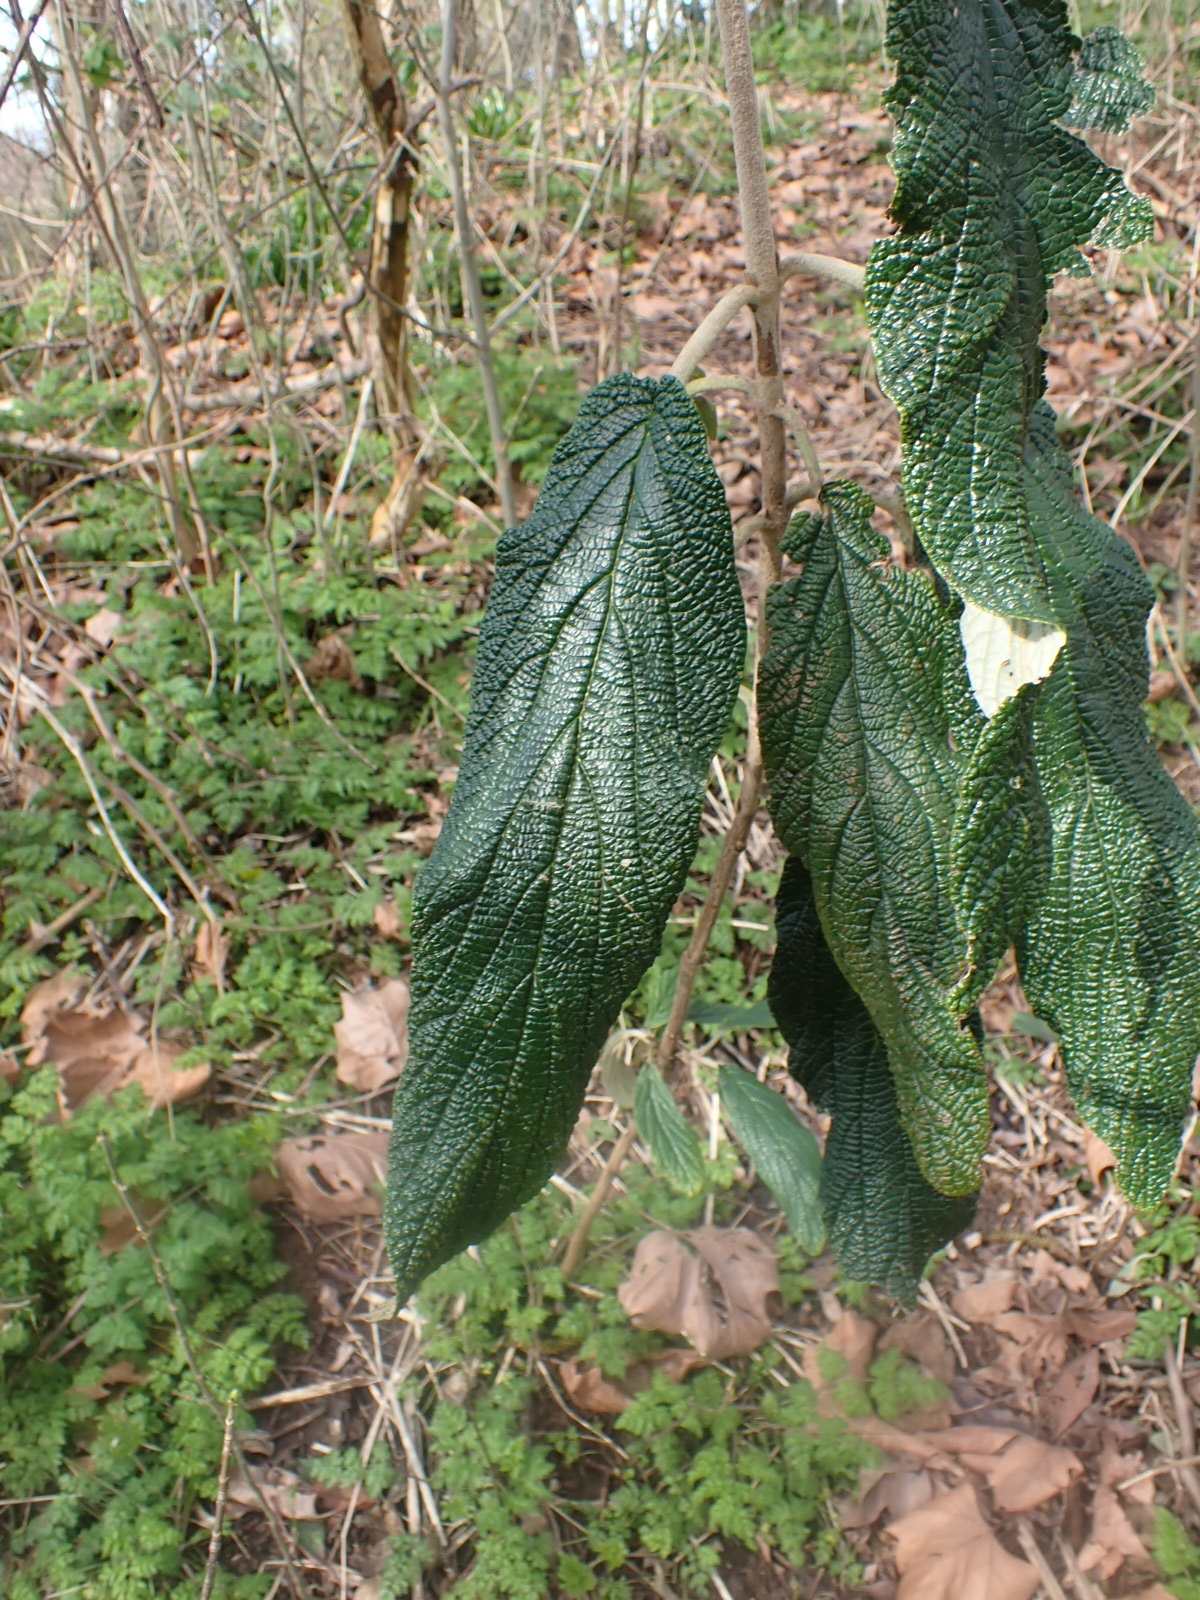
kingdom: Plantae
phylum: Tracheophyta
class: Magnoliopsida
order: Dipsacales
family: Viburnaceae
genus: Viburnum
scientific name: Viburnum rhytidophyllum
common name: Wrinkled viburnum
